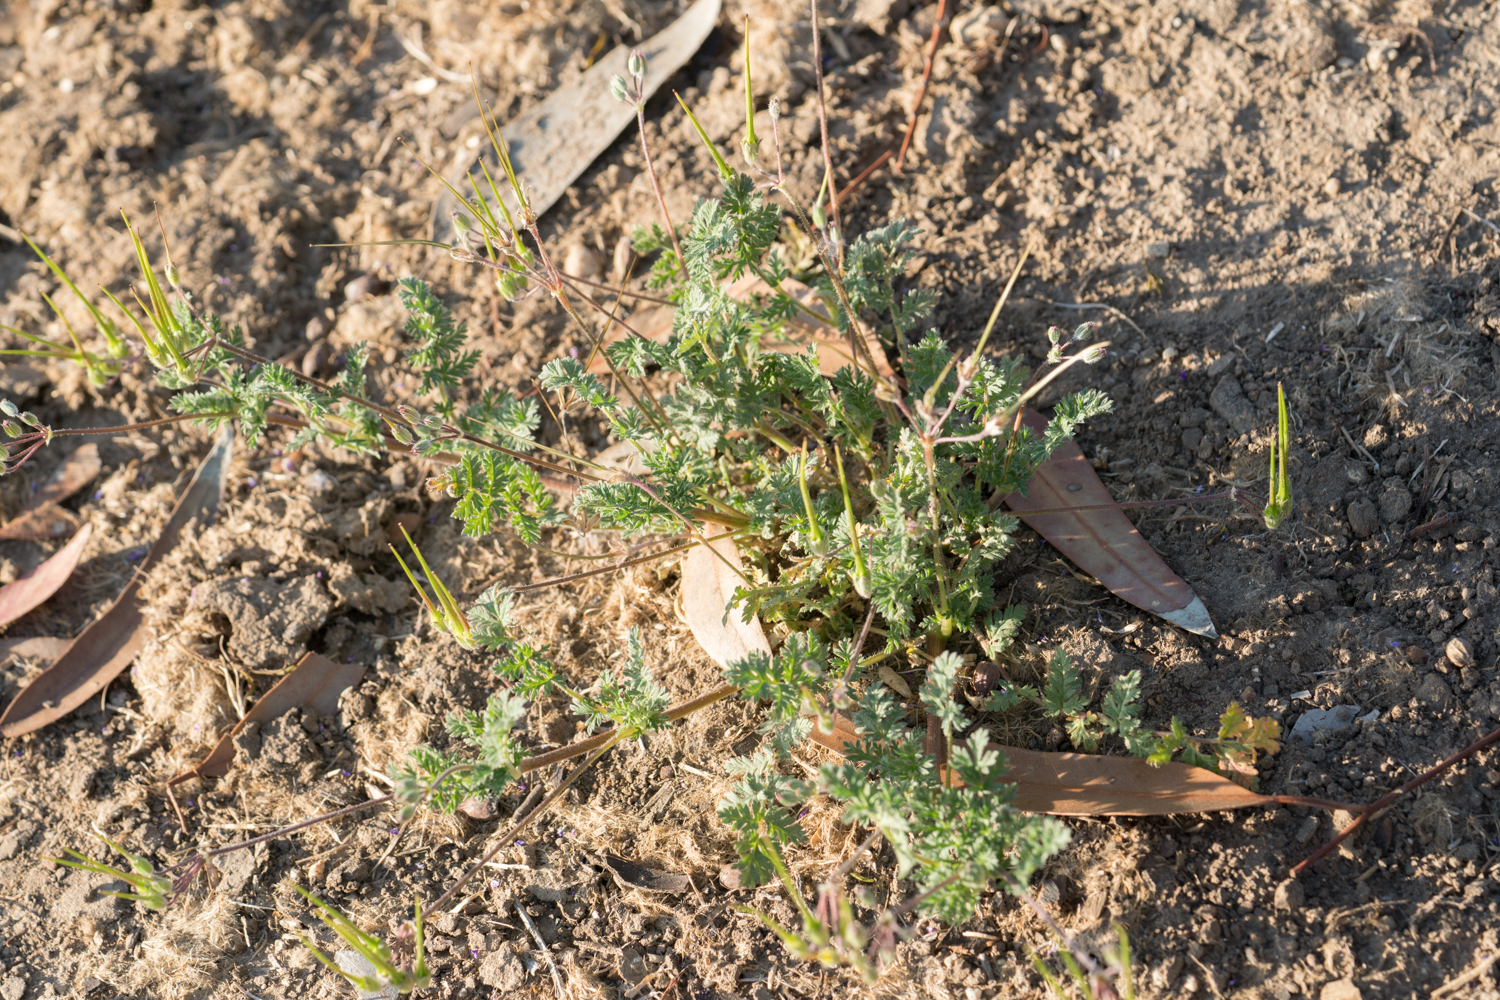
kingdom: Plantae
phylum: Tracheophyta
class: Magnoliopsida
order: Geraniales
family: Geraniaceae
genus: Erodium
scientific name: Erodium cicutarium
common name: Common stork's-bill
